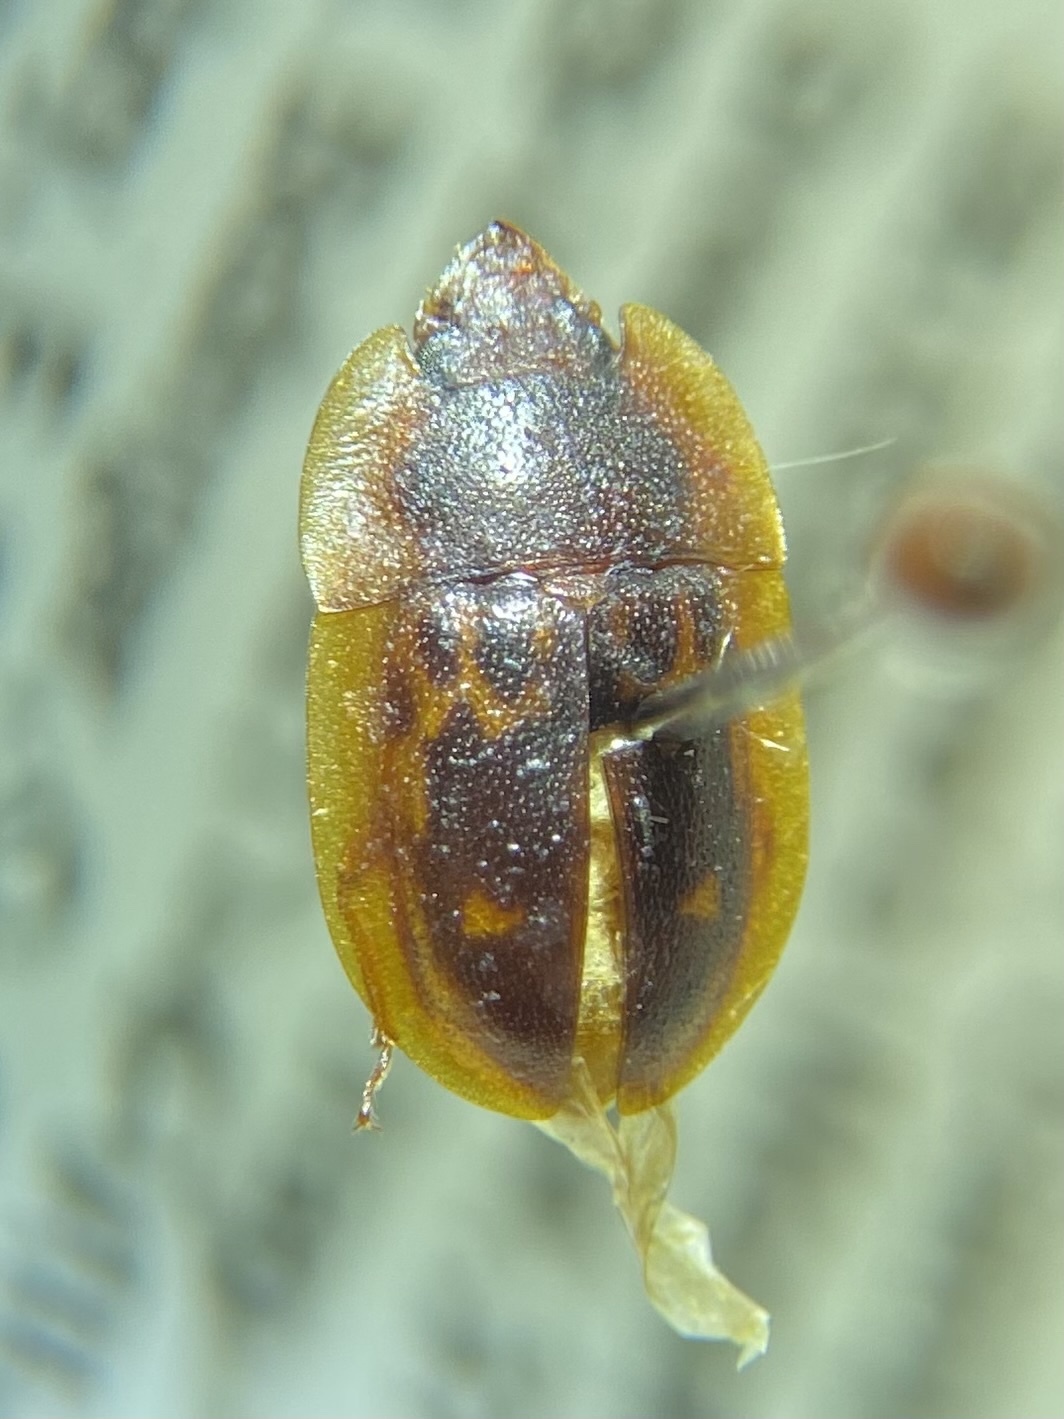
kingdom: Animalia
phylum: Arthropoda
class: Insecta
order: Coleoptera
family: Nitidulidae
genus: Prometopia
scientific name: Prometopia sexmaculata
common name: Six-spotted sap-feeding beetle
